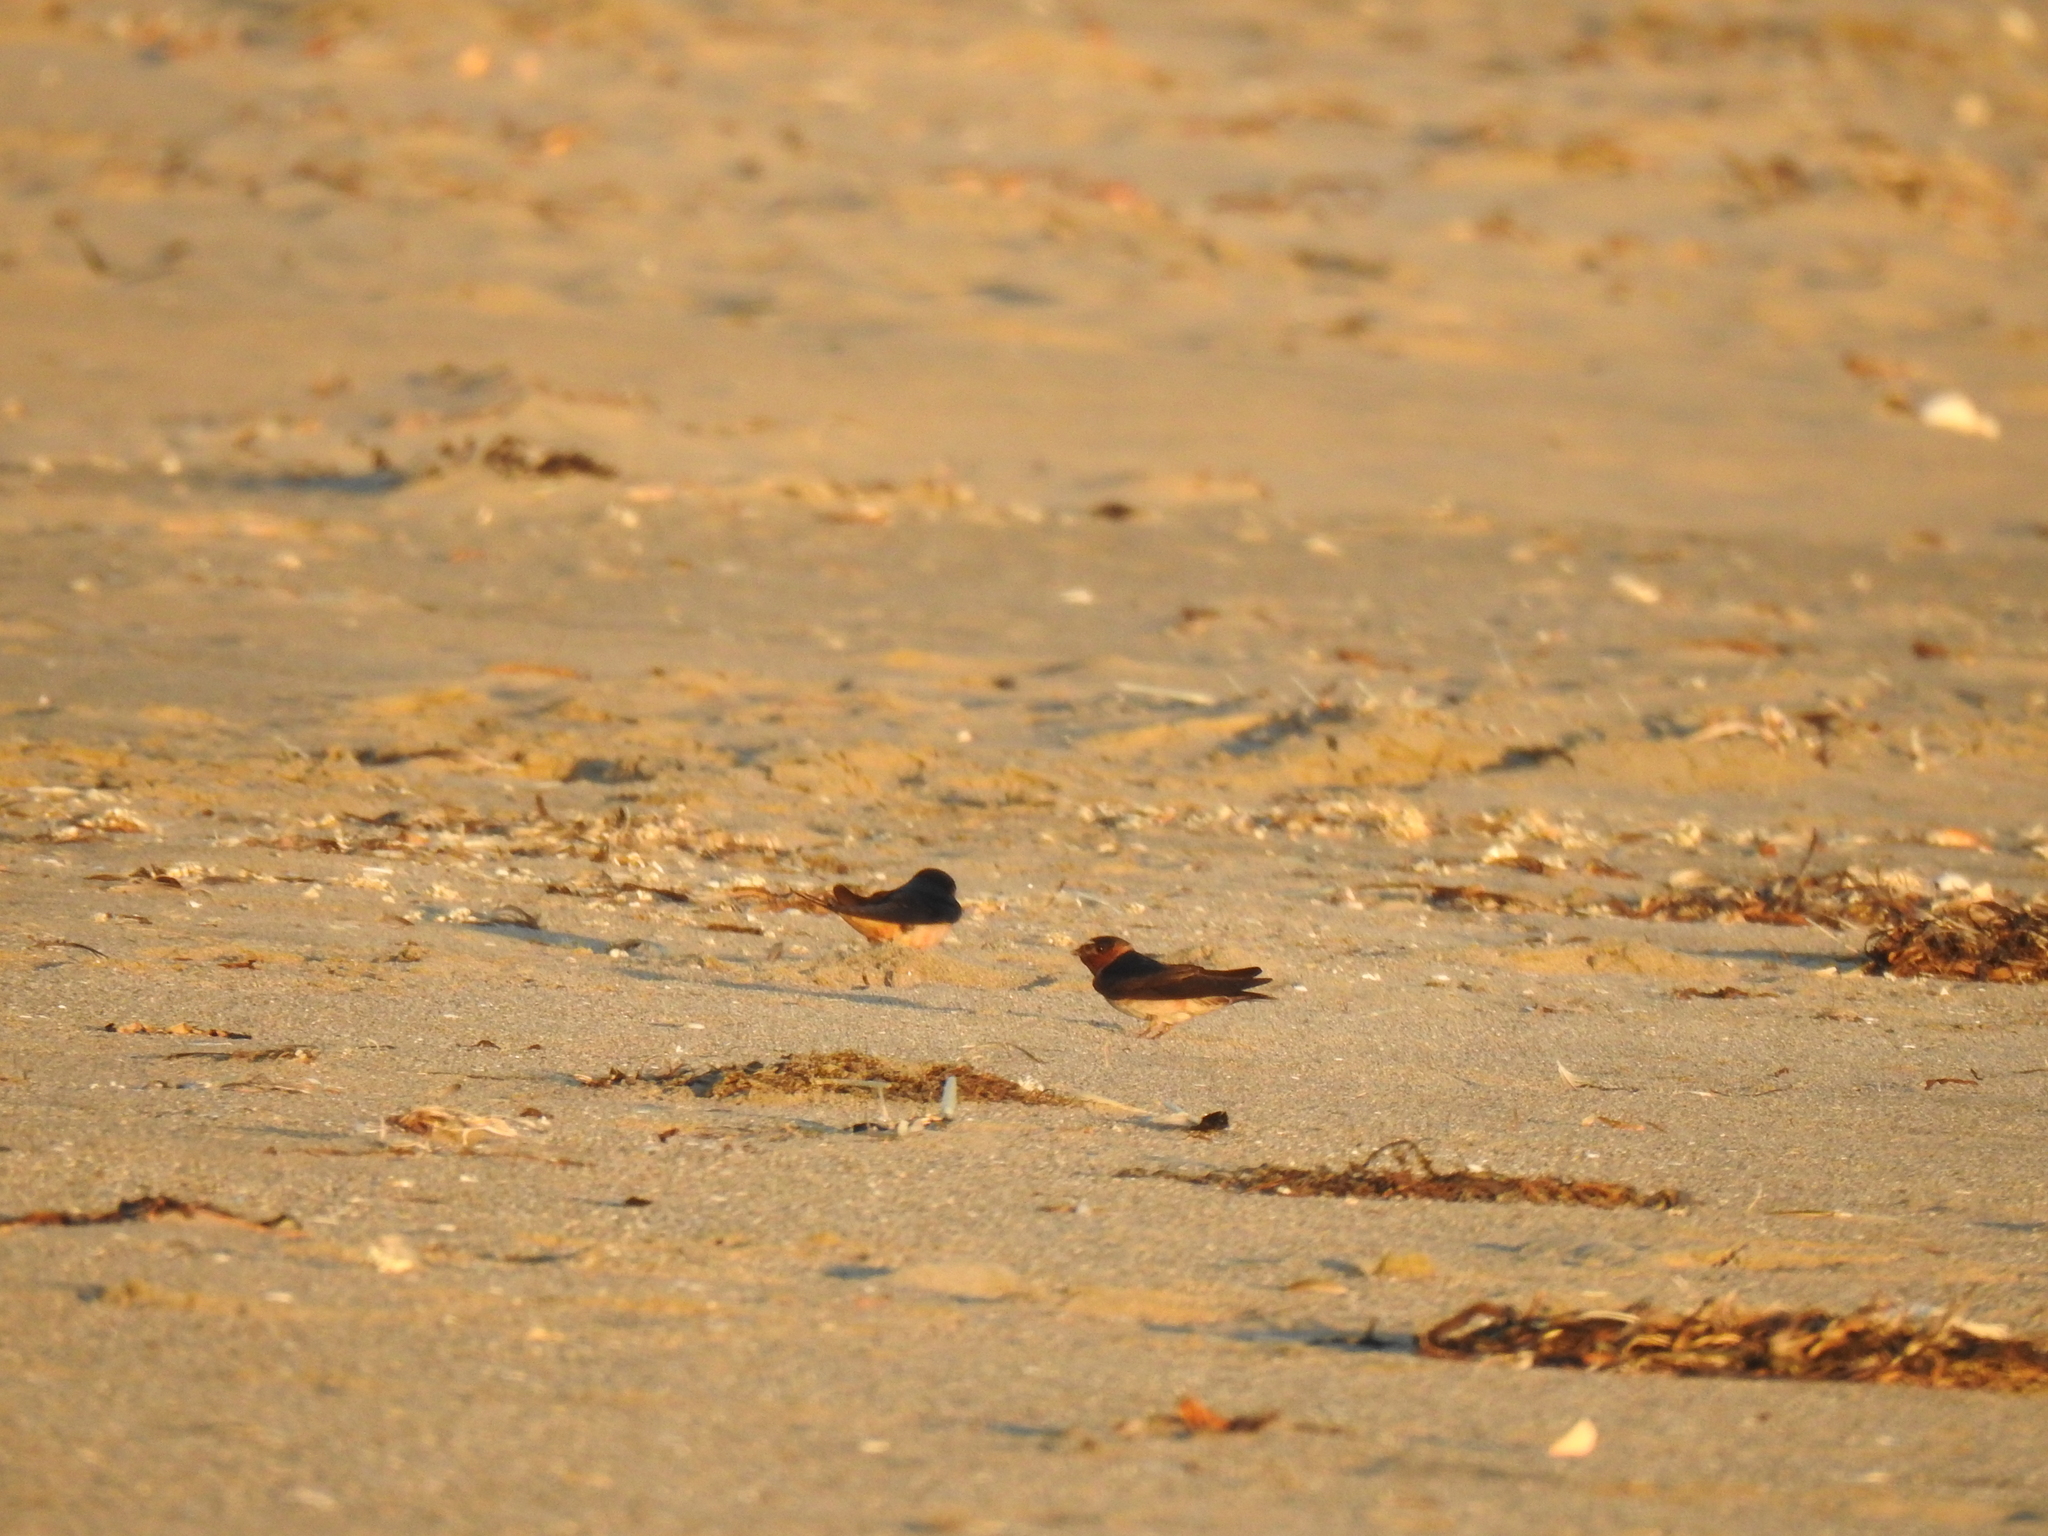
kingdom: Animalia
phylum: Chordata
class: Aves
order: Passeriformes
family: Hirundinidae
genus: Hirundo
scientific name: Hirundo rustica
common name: Barn swallow
